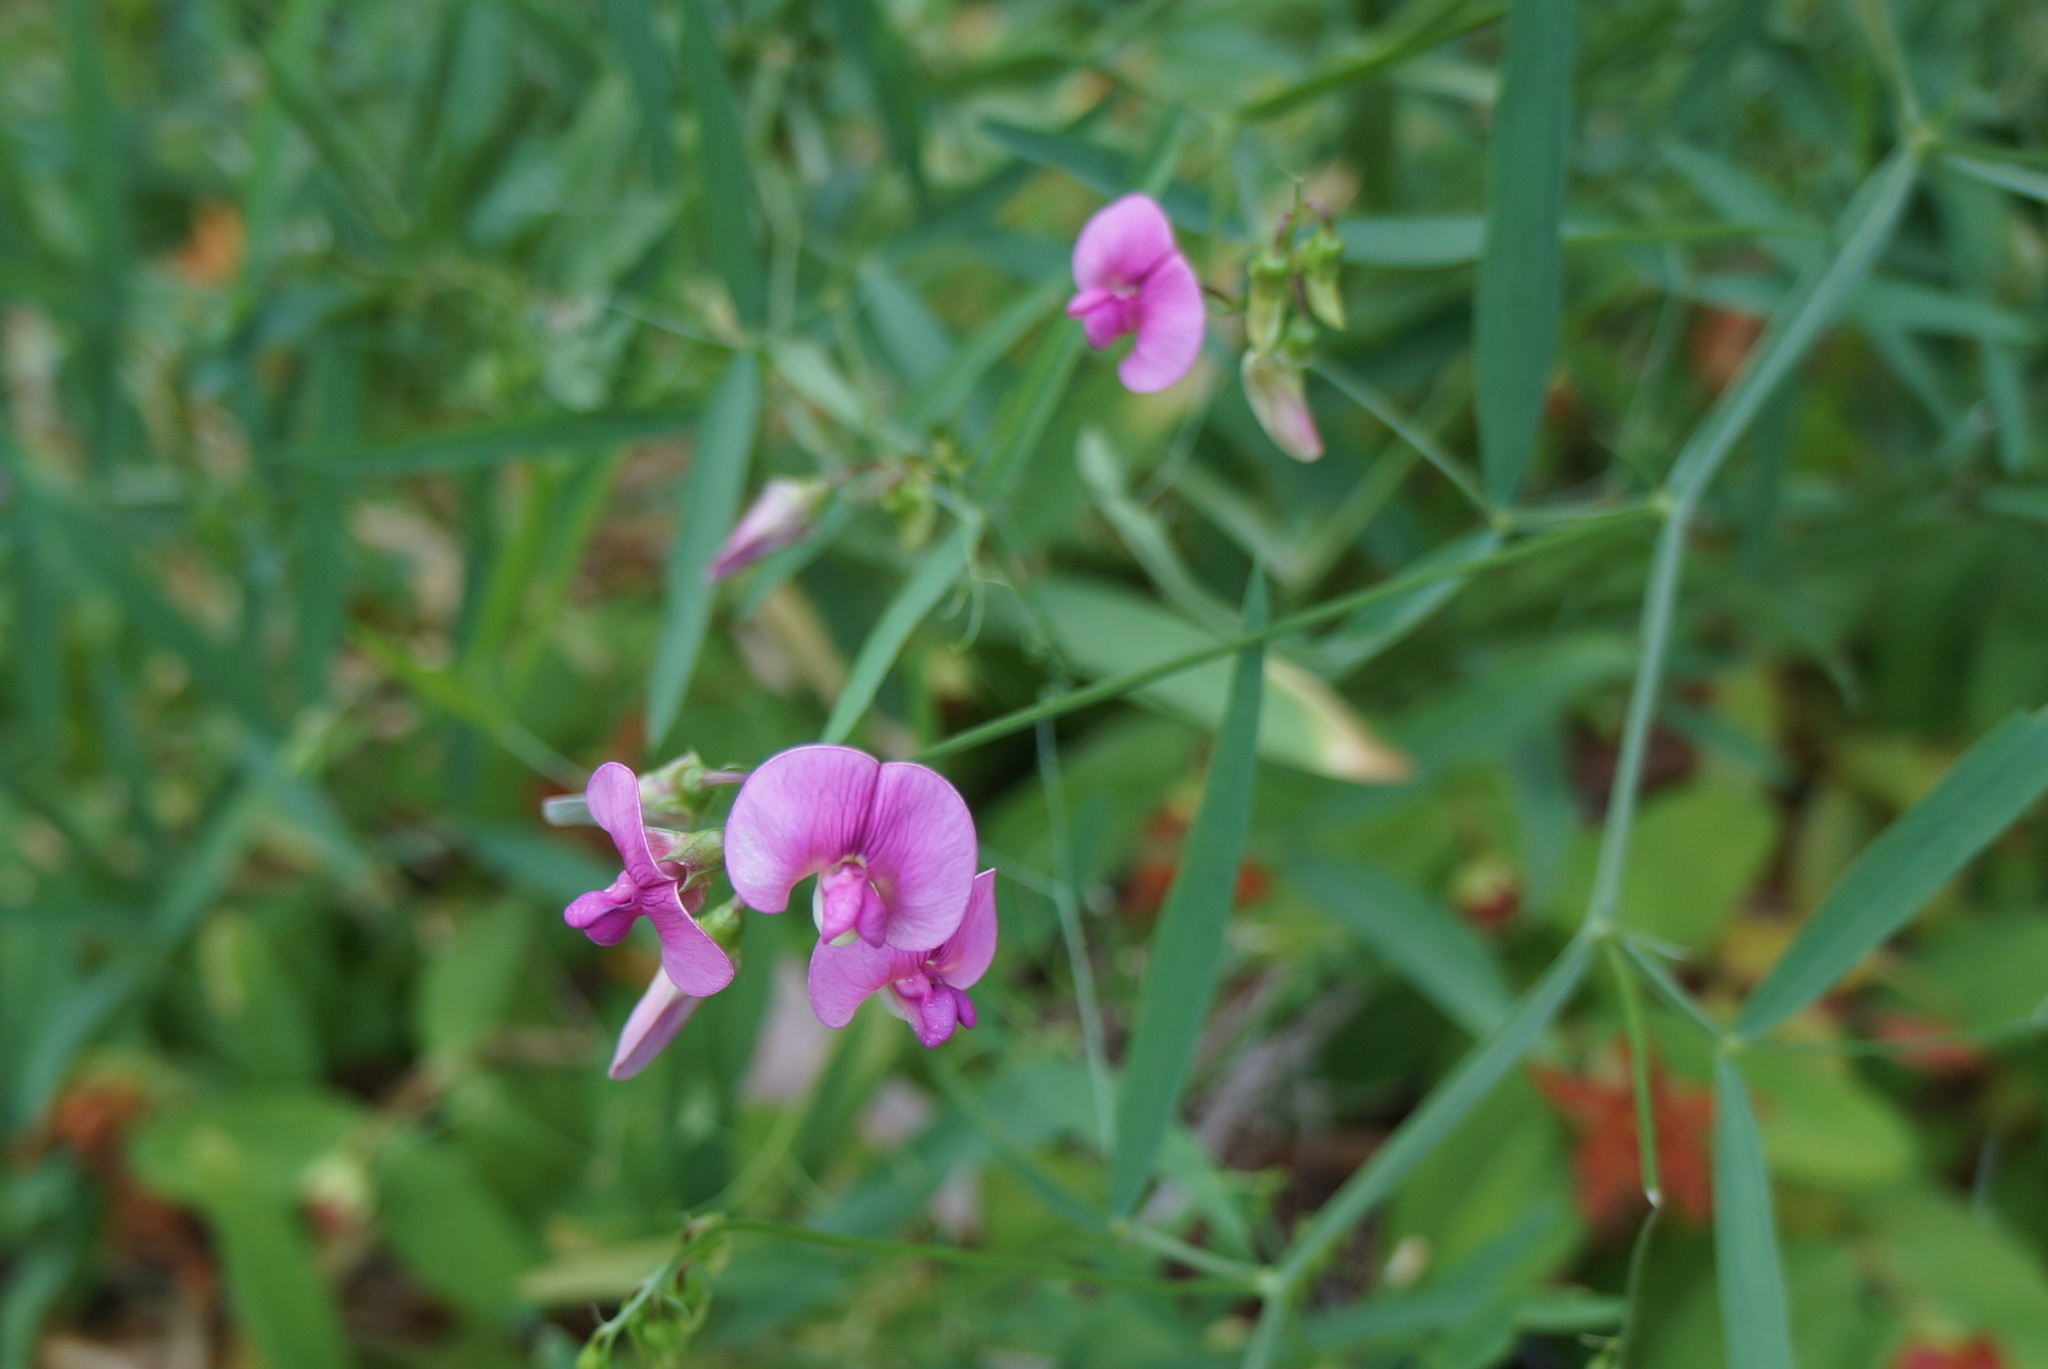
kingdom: Plantae
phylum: Tracheophyta
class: Magnoliopsida
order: Fabales
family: Fabaceae
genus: Lathyrus
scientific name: Lathyrus sylvestris
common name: Flat pea
